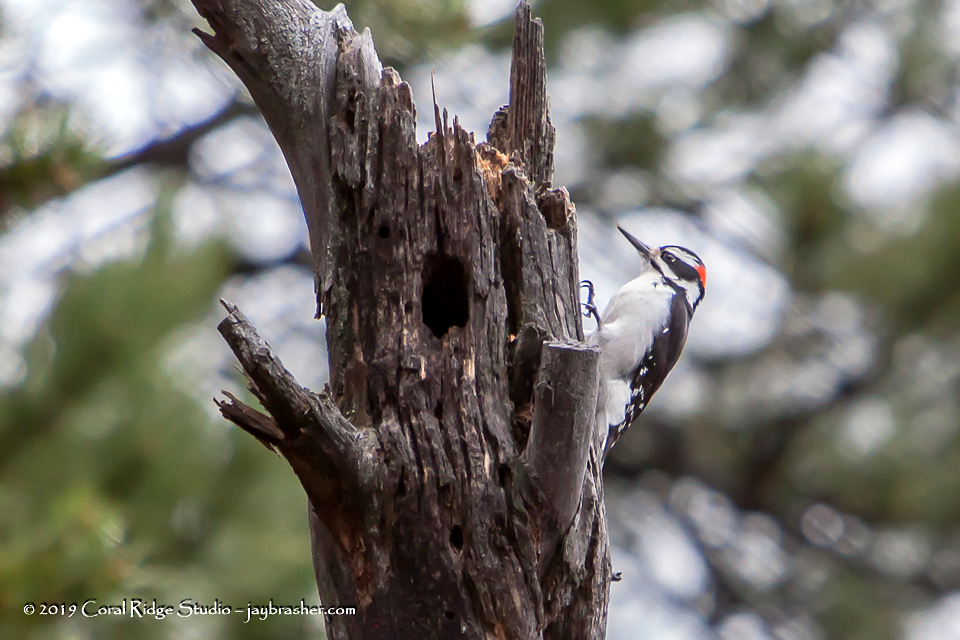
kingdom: Animalia
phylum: Chordata
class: Aves
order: Piciformes
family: Picidae
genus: Leuconotopicus
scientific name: Leuconotopicus villosus
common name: Hairy woodpecker
